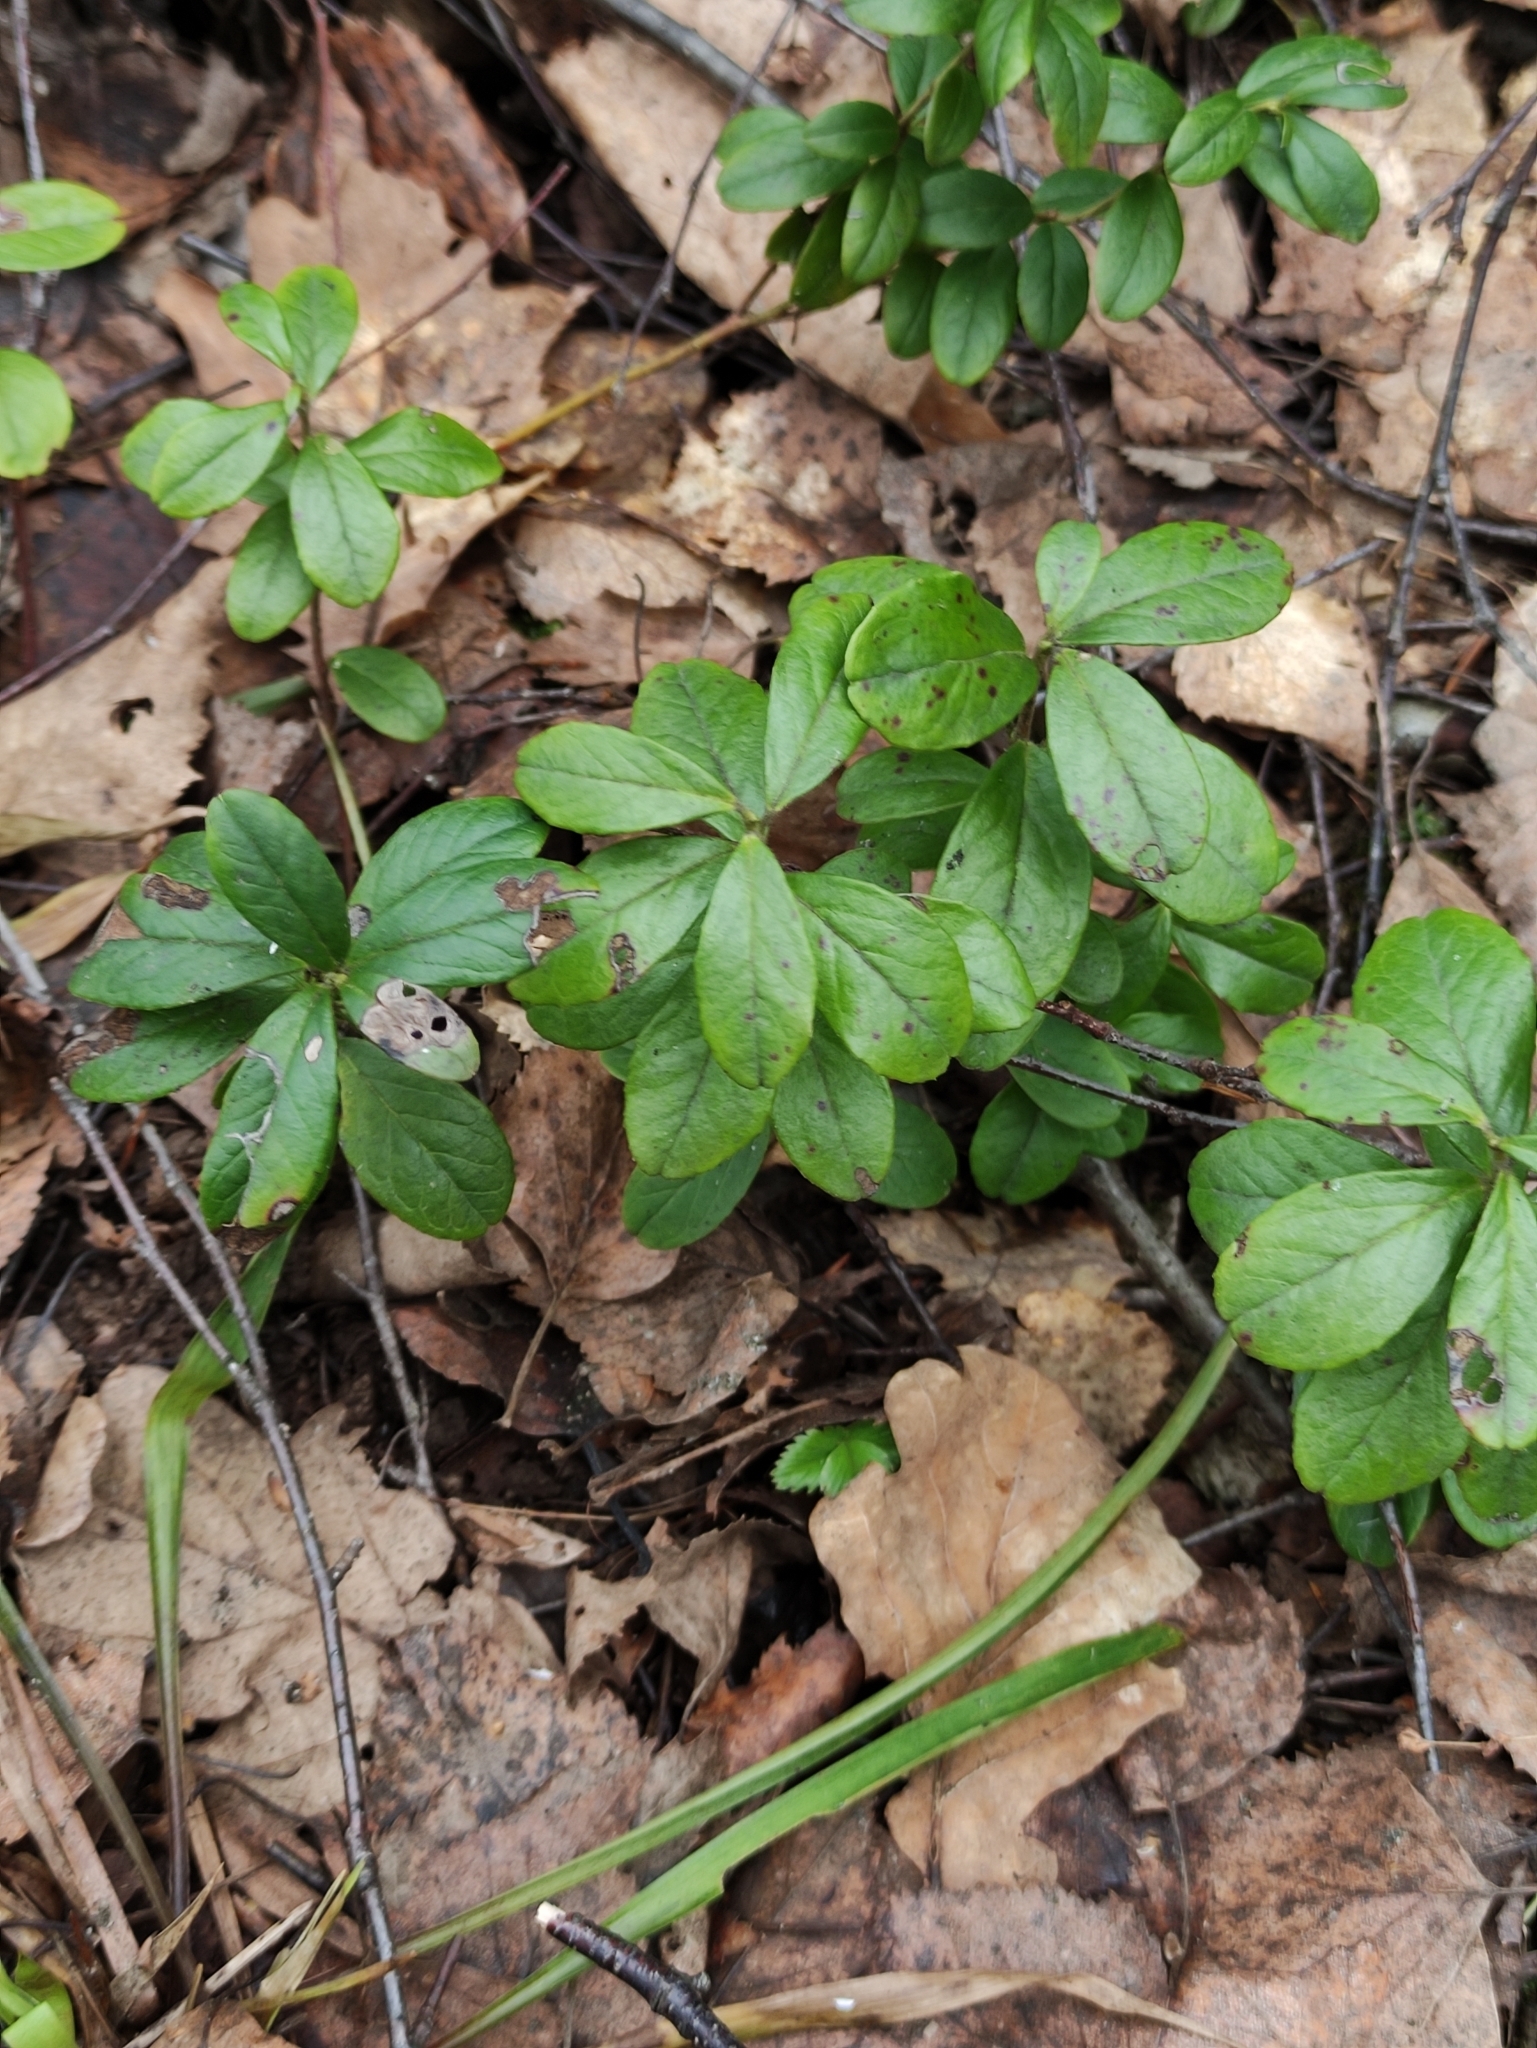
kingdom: Plantae
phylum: Tracheophyta
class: Magnoliopsida
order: Ericales
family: Ericaceae
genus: Vaccinium
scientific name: Vaccinium vitis-idaea
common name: Cowberry
